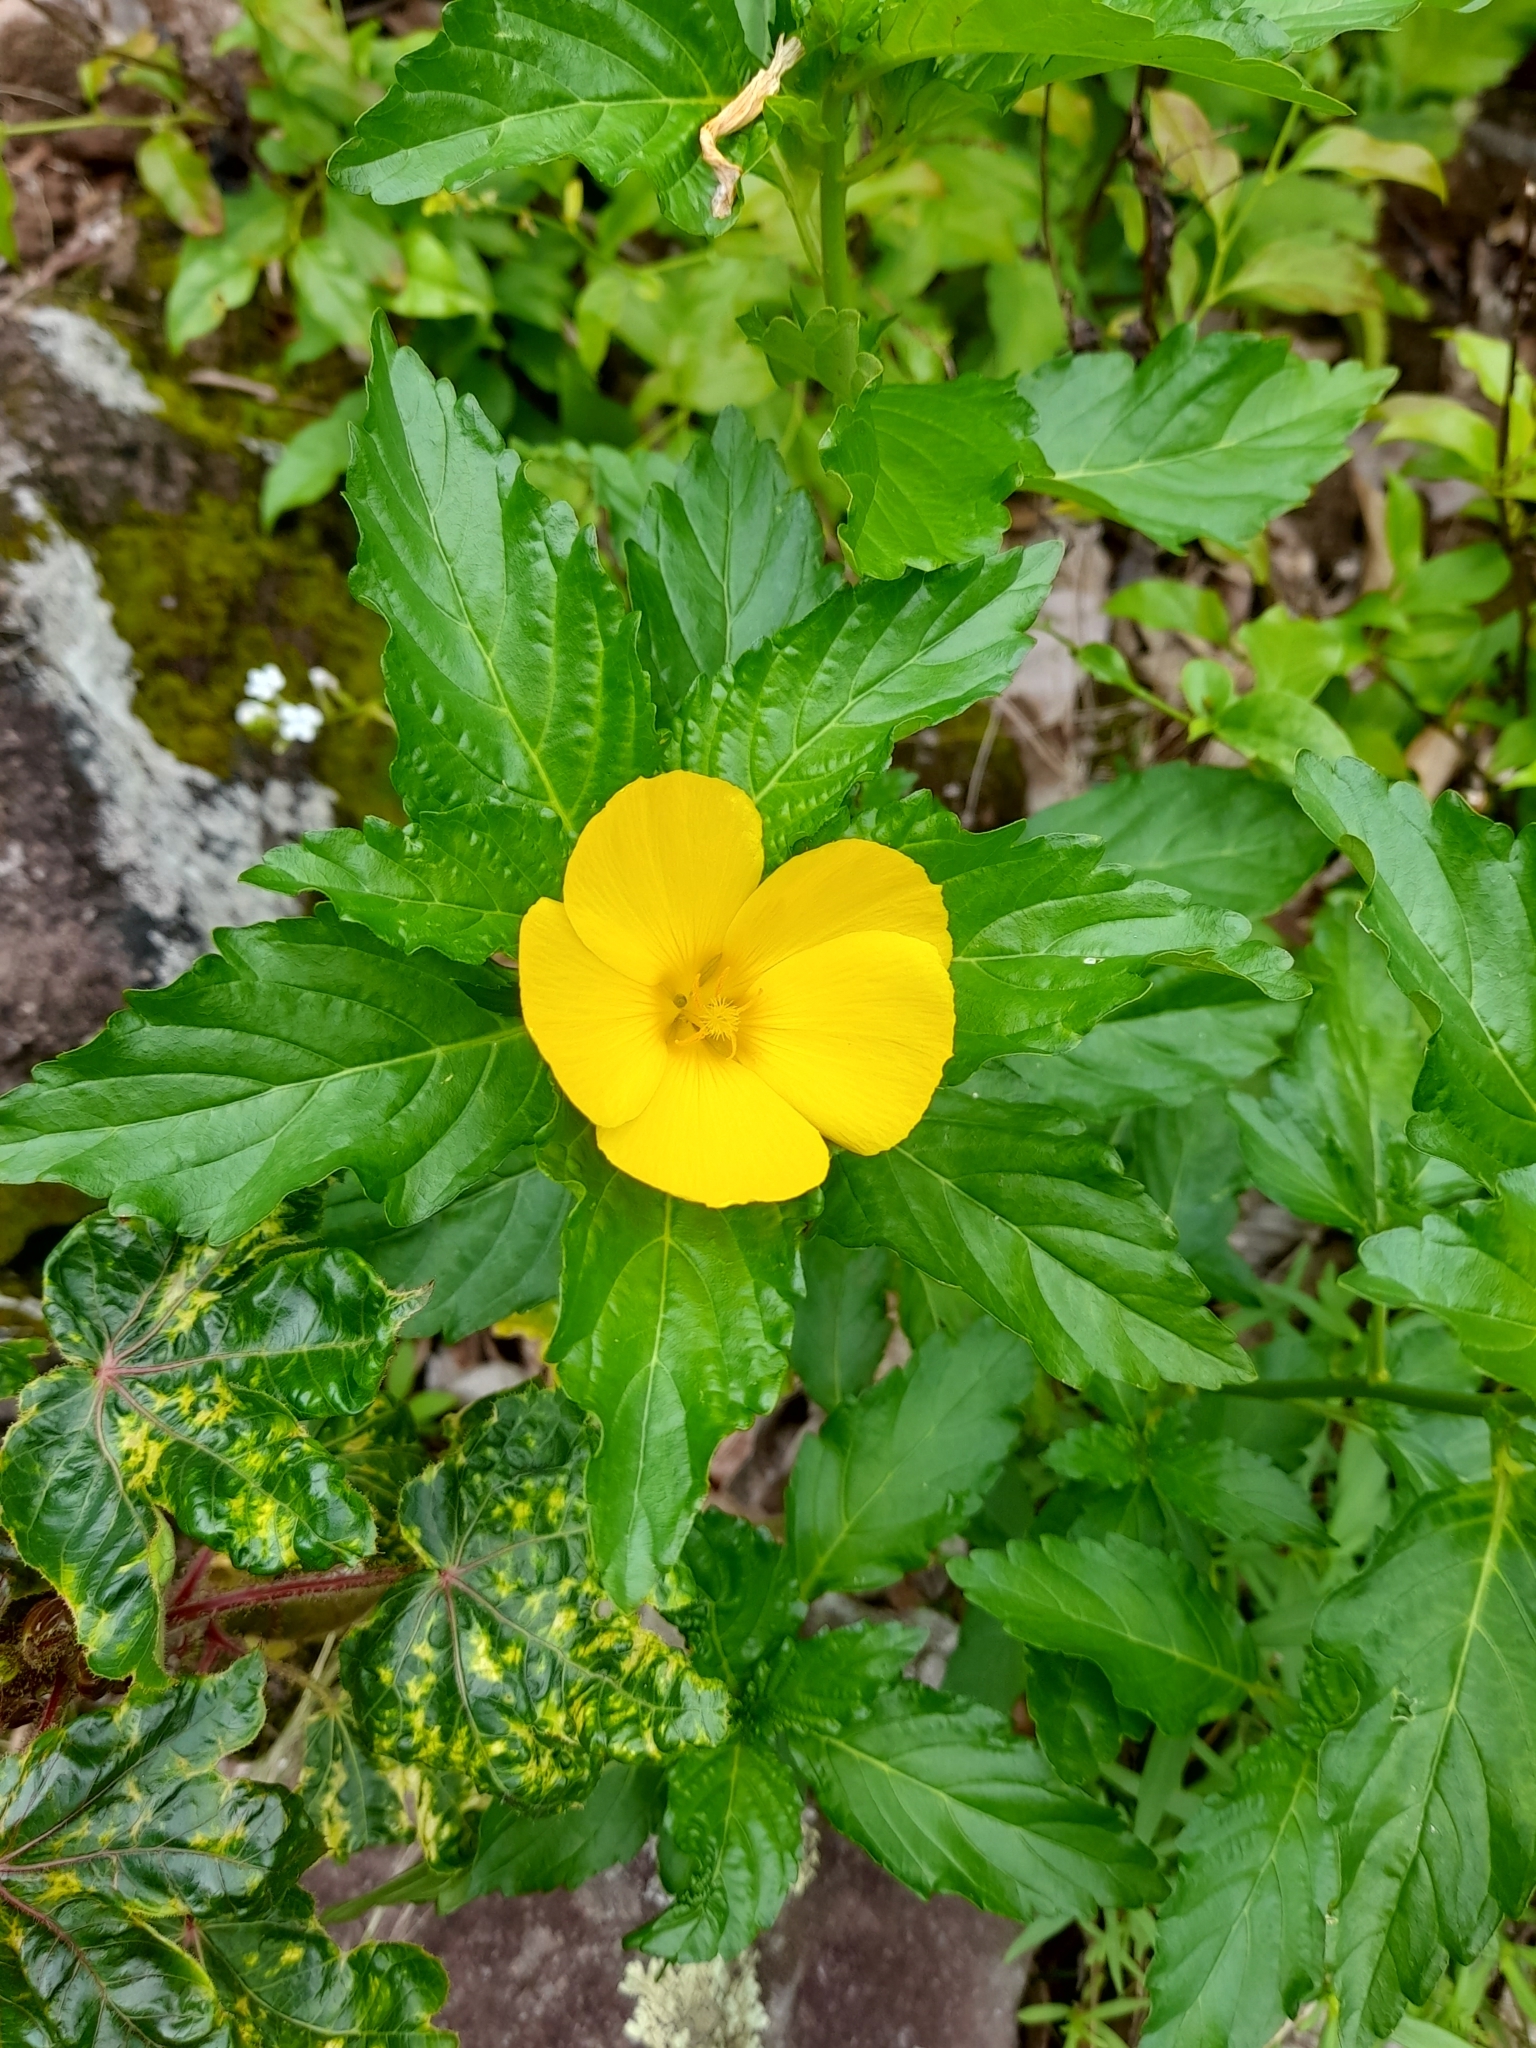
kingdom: Plantae
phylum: Tracheophyta
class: Magnoliopsida
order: Malpighiales
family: Turneraceae
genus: Turnera
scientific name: Turnera ulmifolia
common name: Ramgoat dashalong
